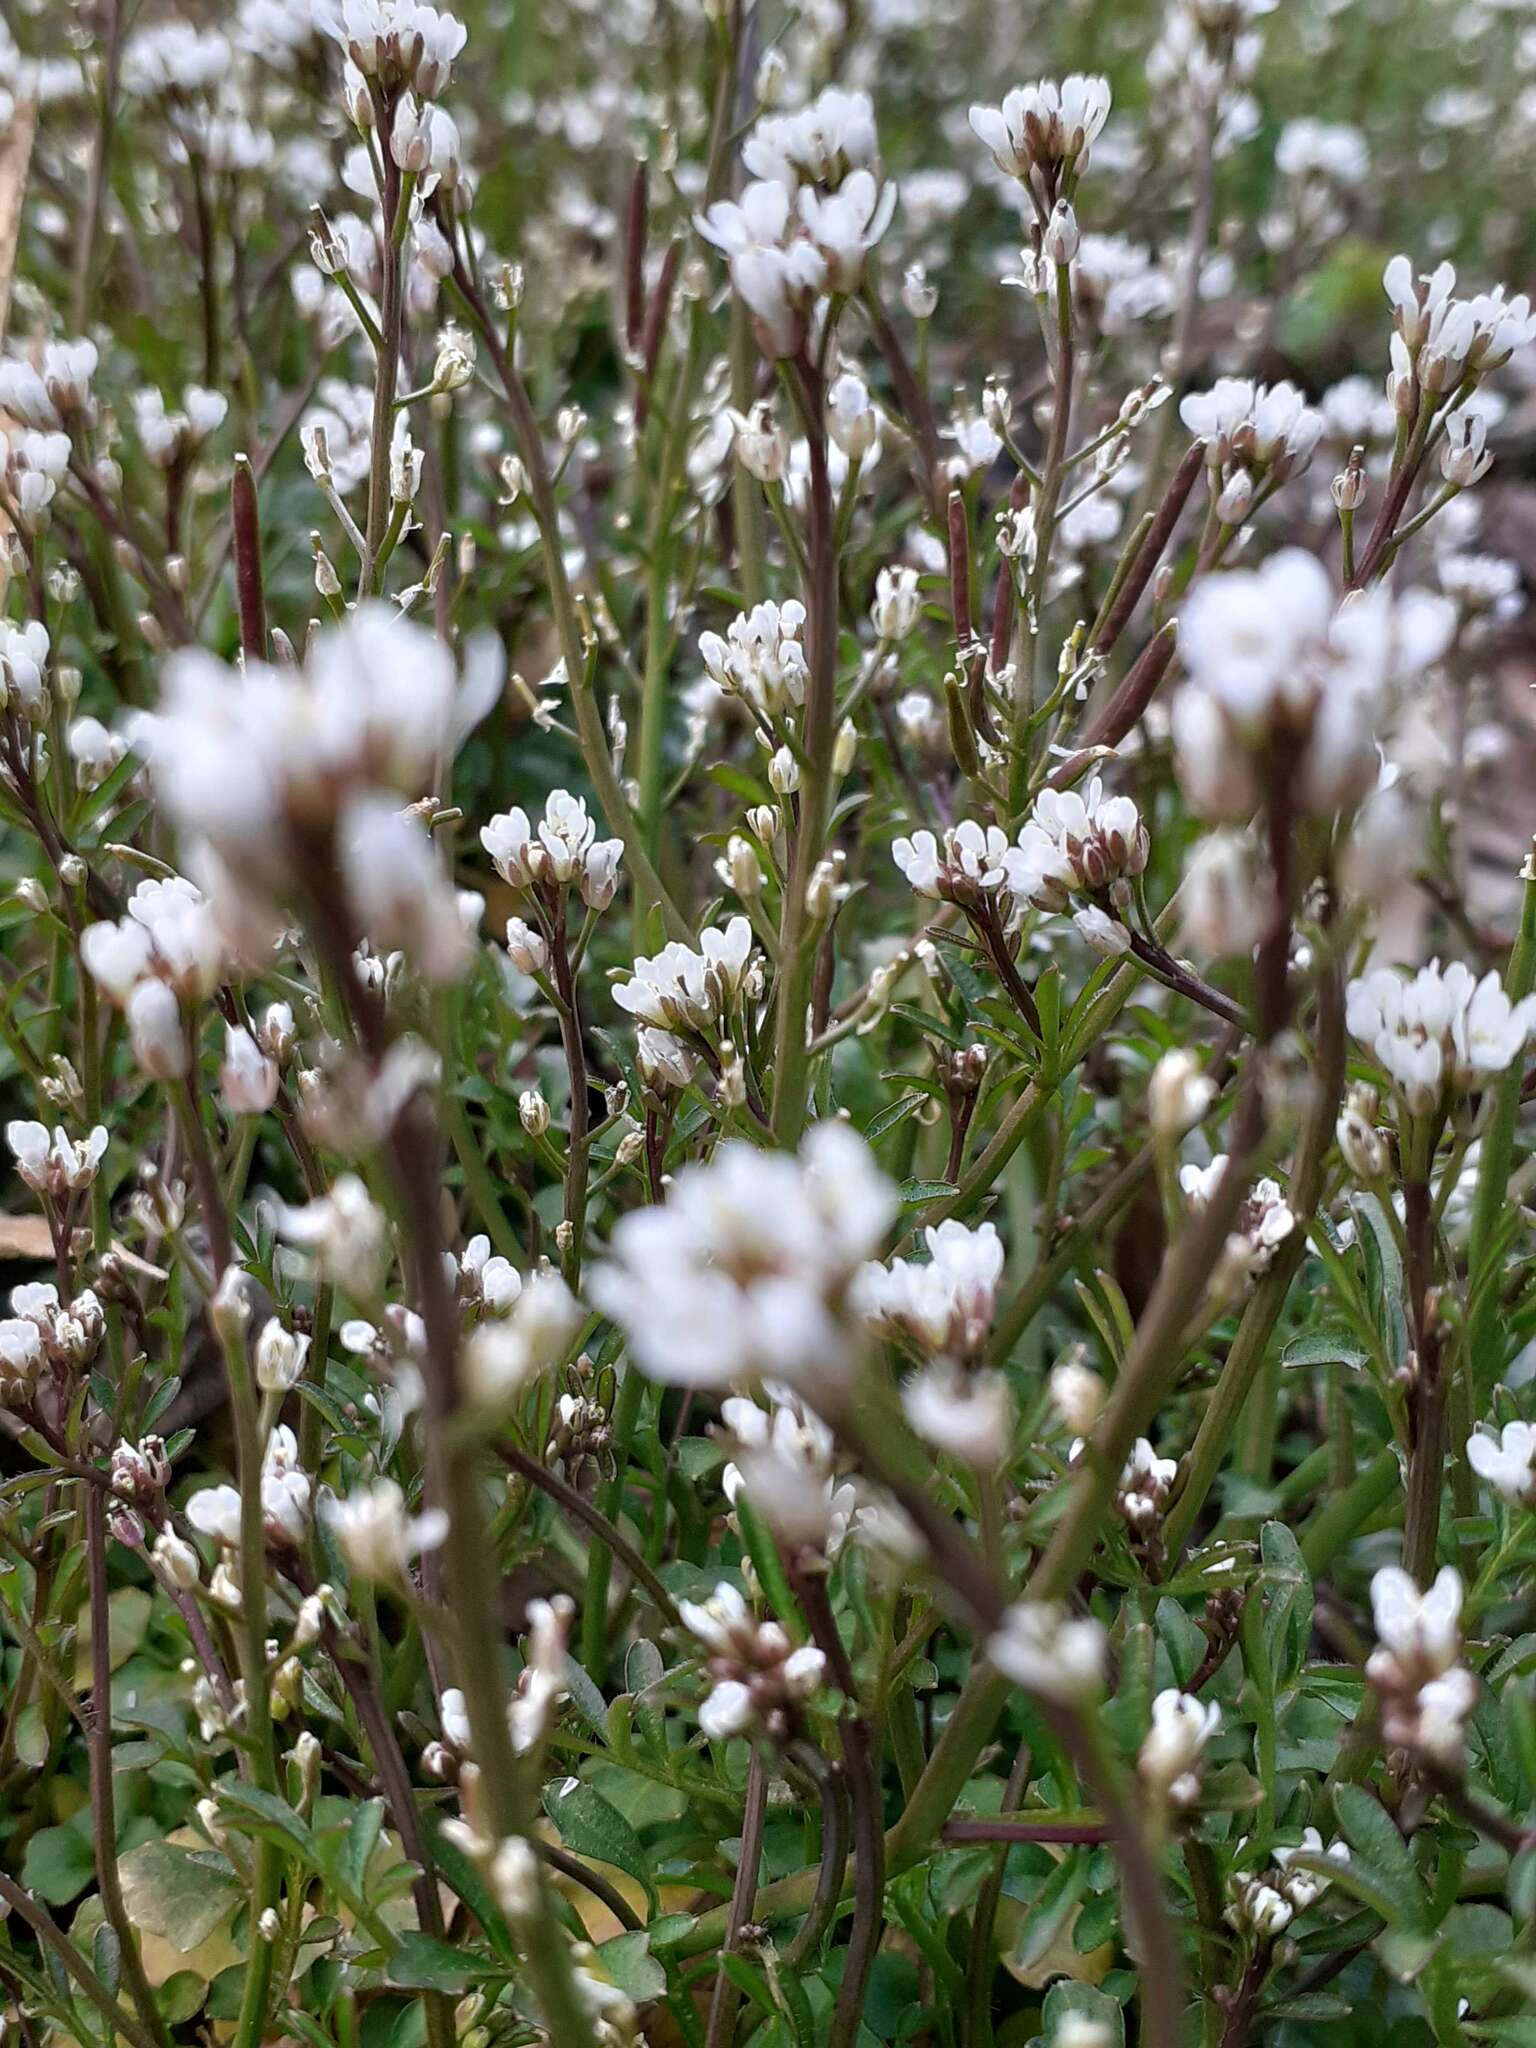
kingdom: Plantae
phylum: Tracheophyta
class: Magnoliopsida
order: Brassicales
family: Brassicaceae
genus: Cardamine
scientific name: Cardamine hirsuta
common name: Hairy bittercress
